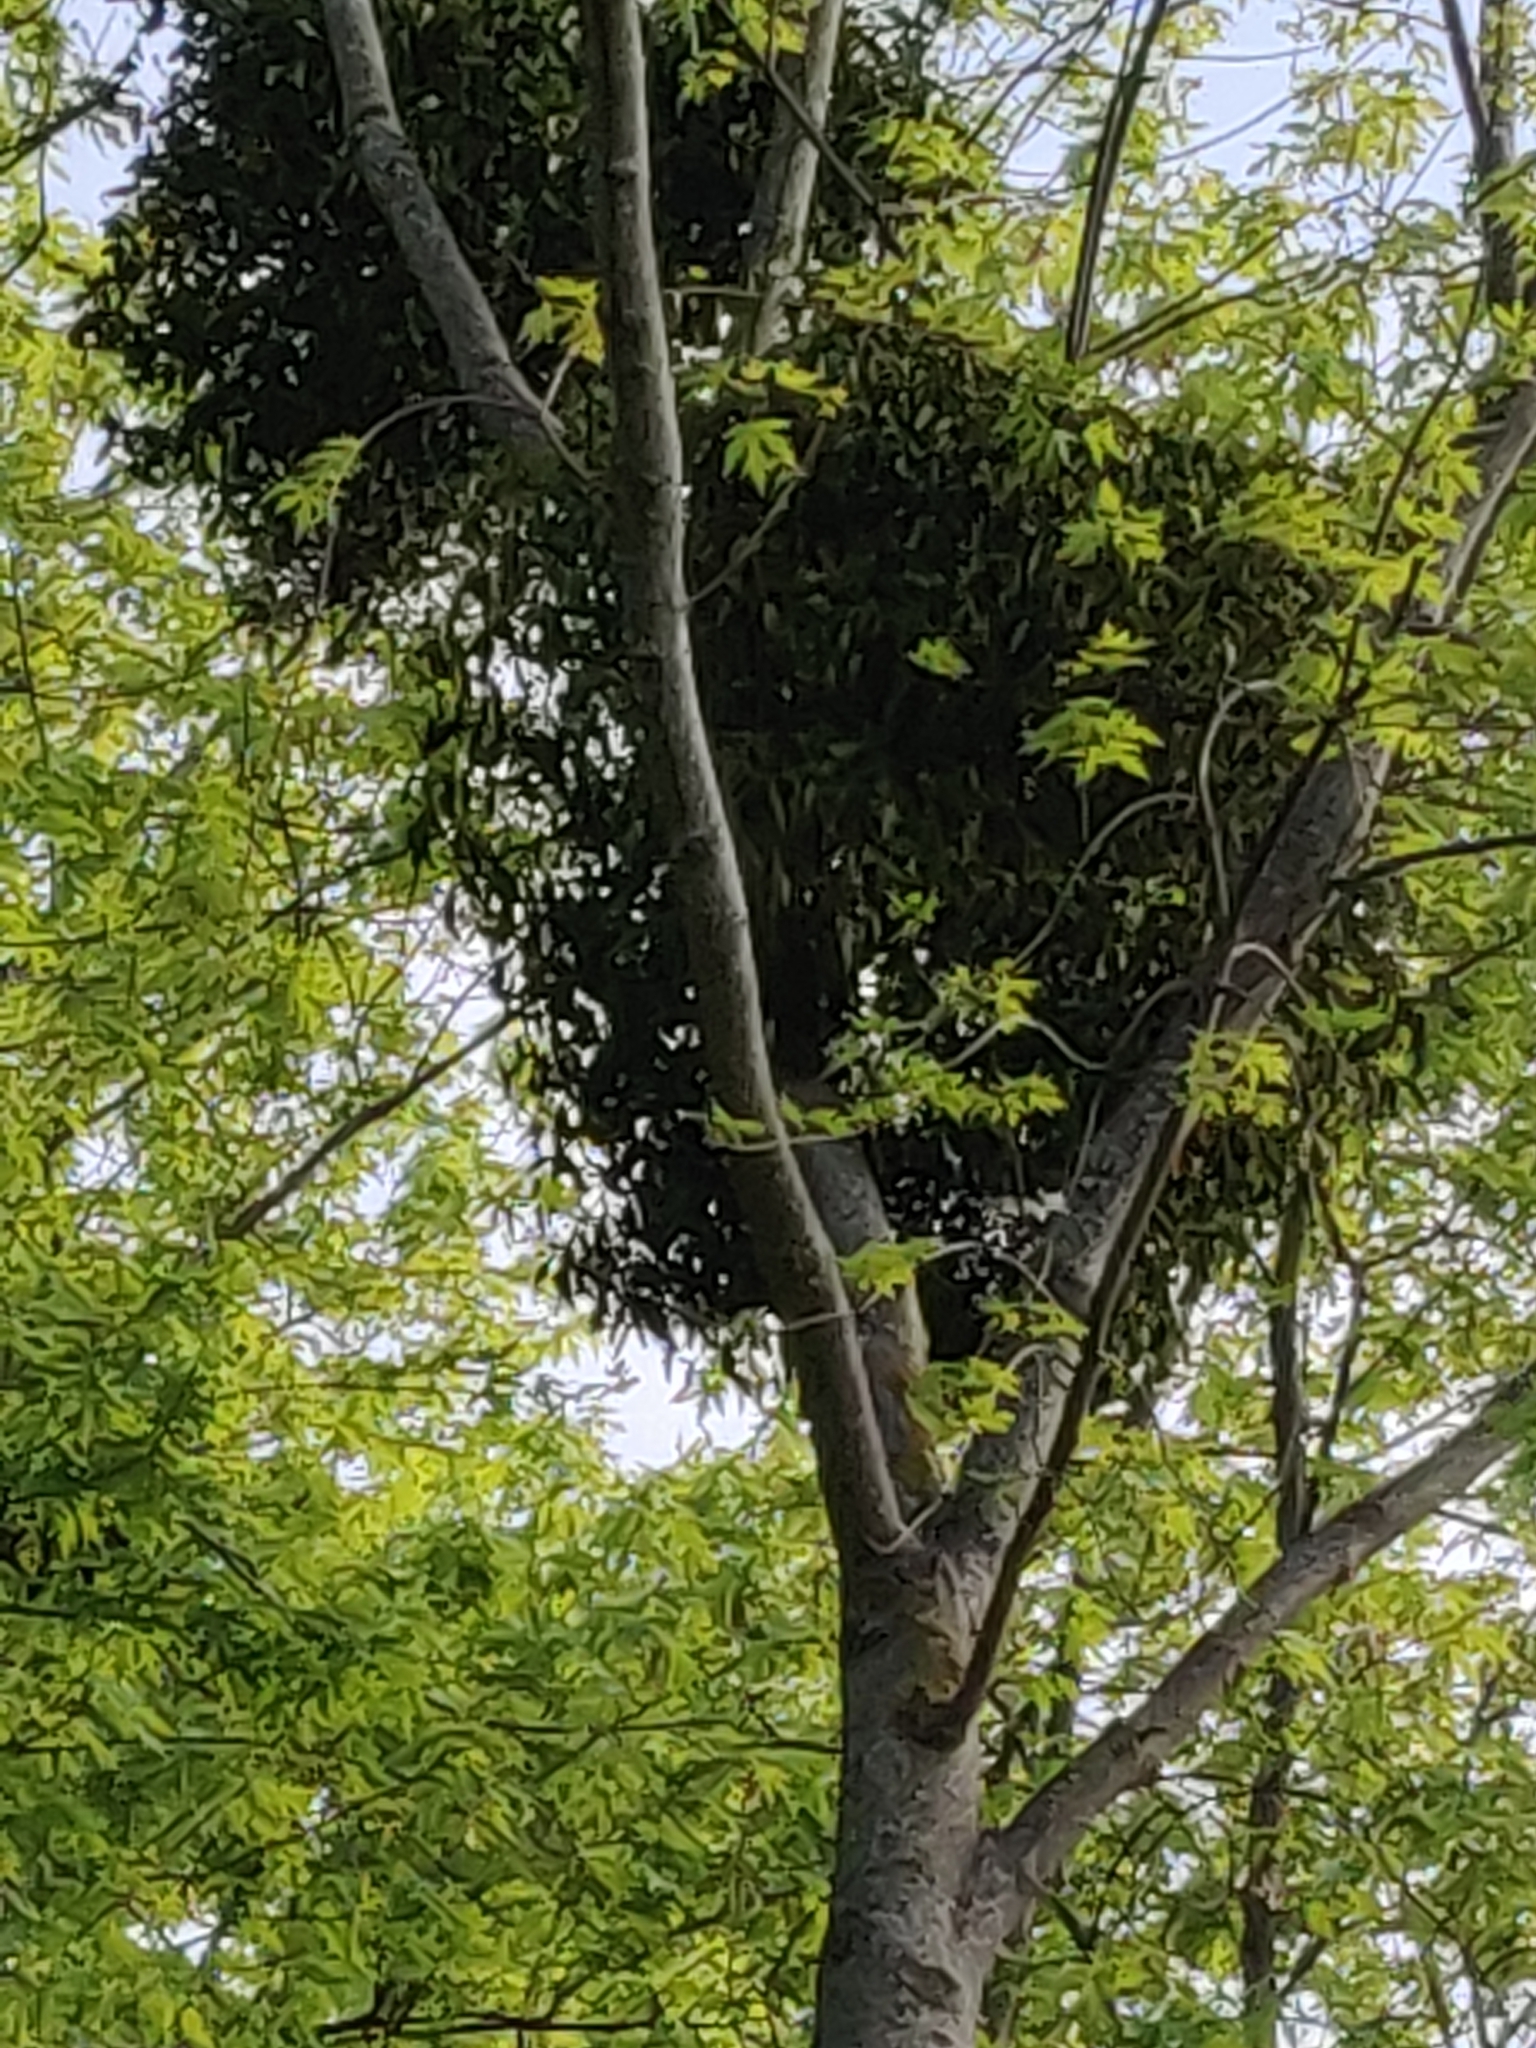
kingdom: Plantae
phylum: Tracheophyta
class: Magnoliopsida
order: Santalales
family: Viscaceae
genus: Viscum
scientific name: Viscum album
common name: Mistletoe
